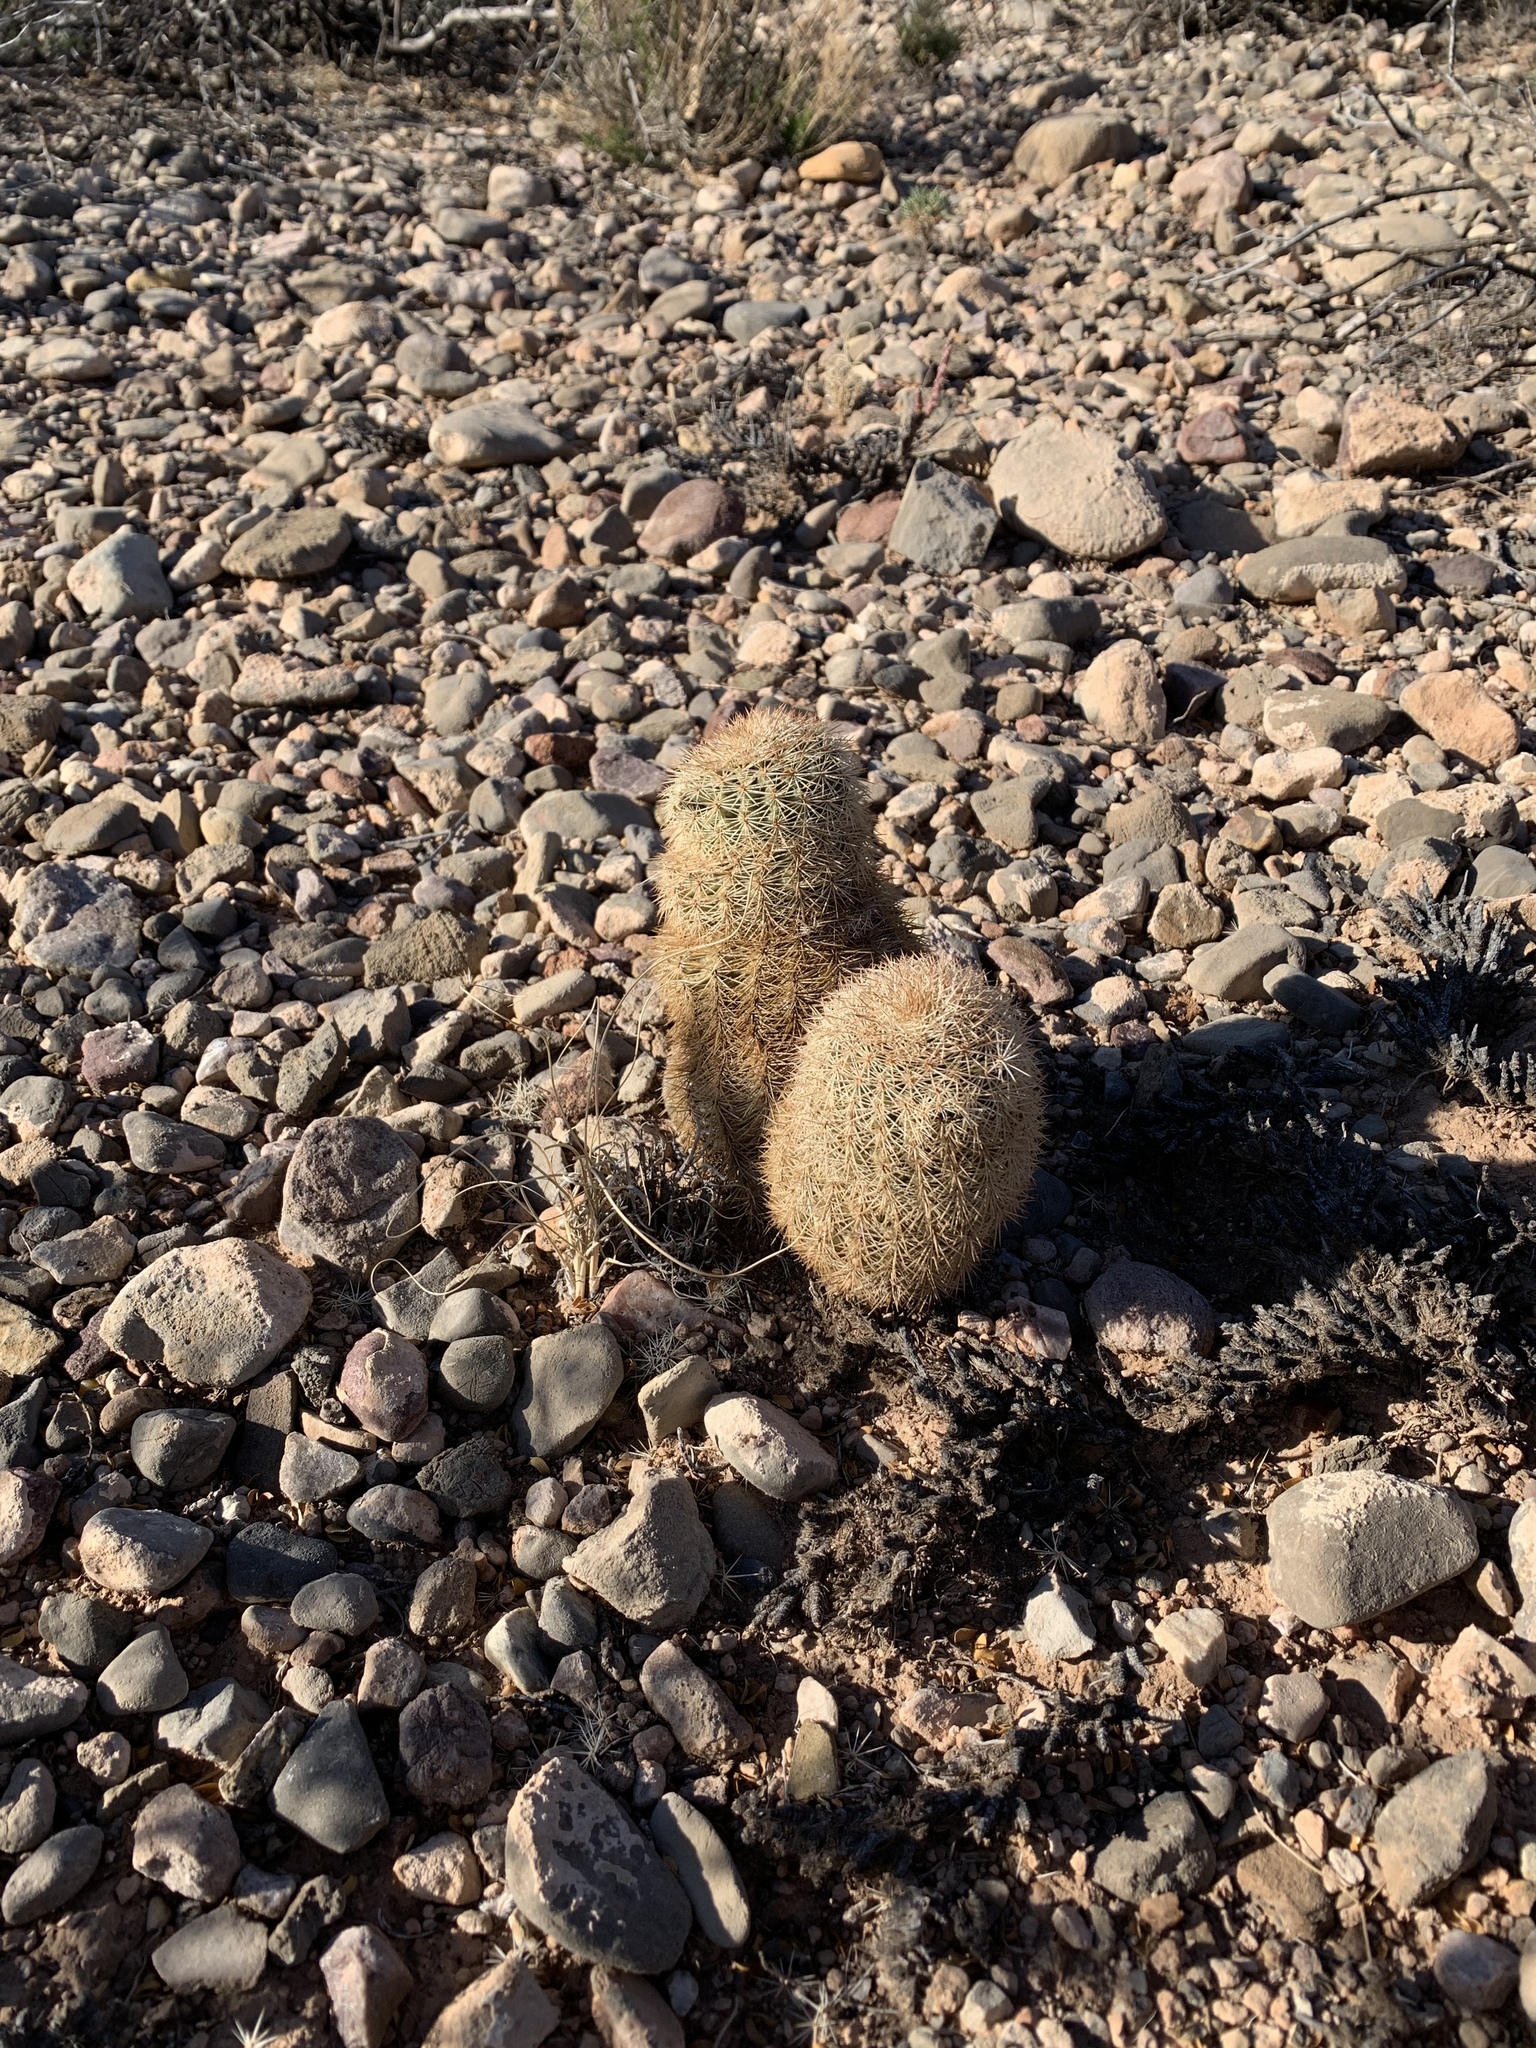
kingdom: Plantae
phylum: Tracheophyta
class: Magnoliopsida
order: Caryophyllales
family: Cactaceae
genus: Echinocereus
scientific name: Echinocereus dasyacanthus
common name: Spiny hedgehog cactus
